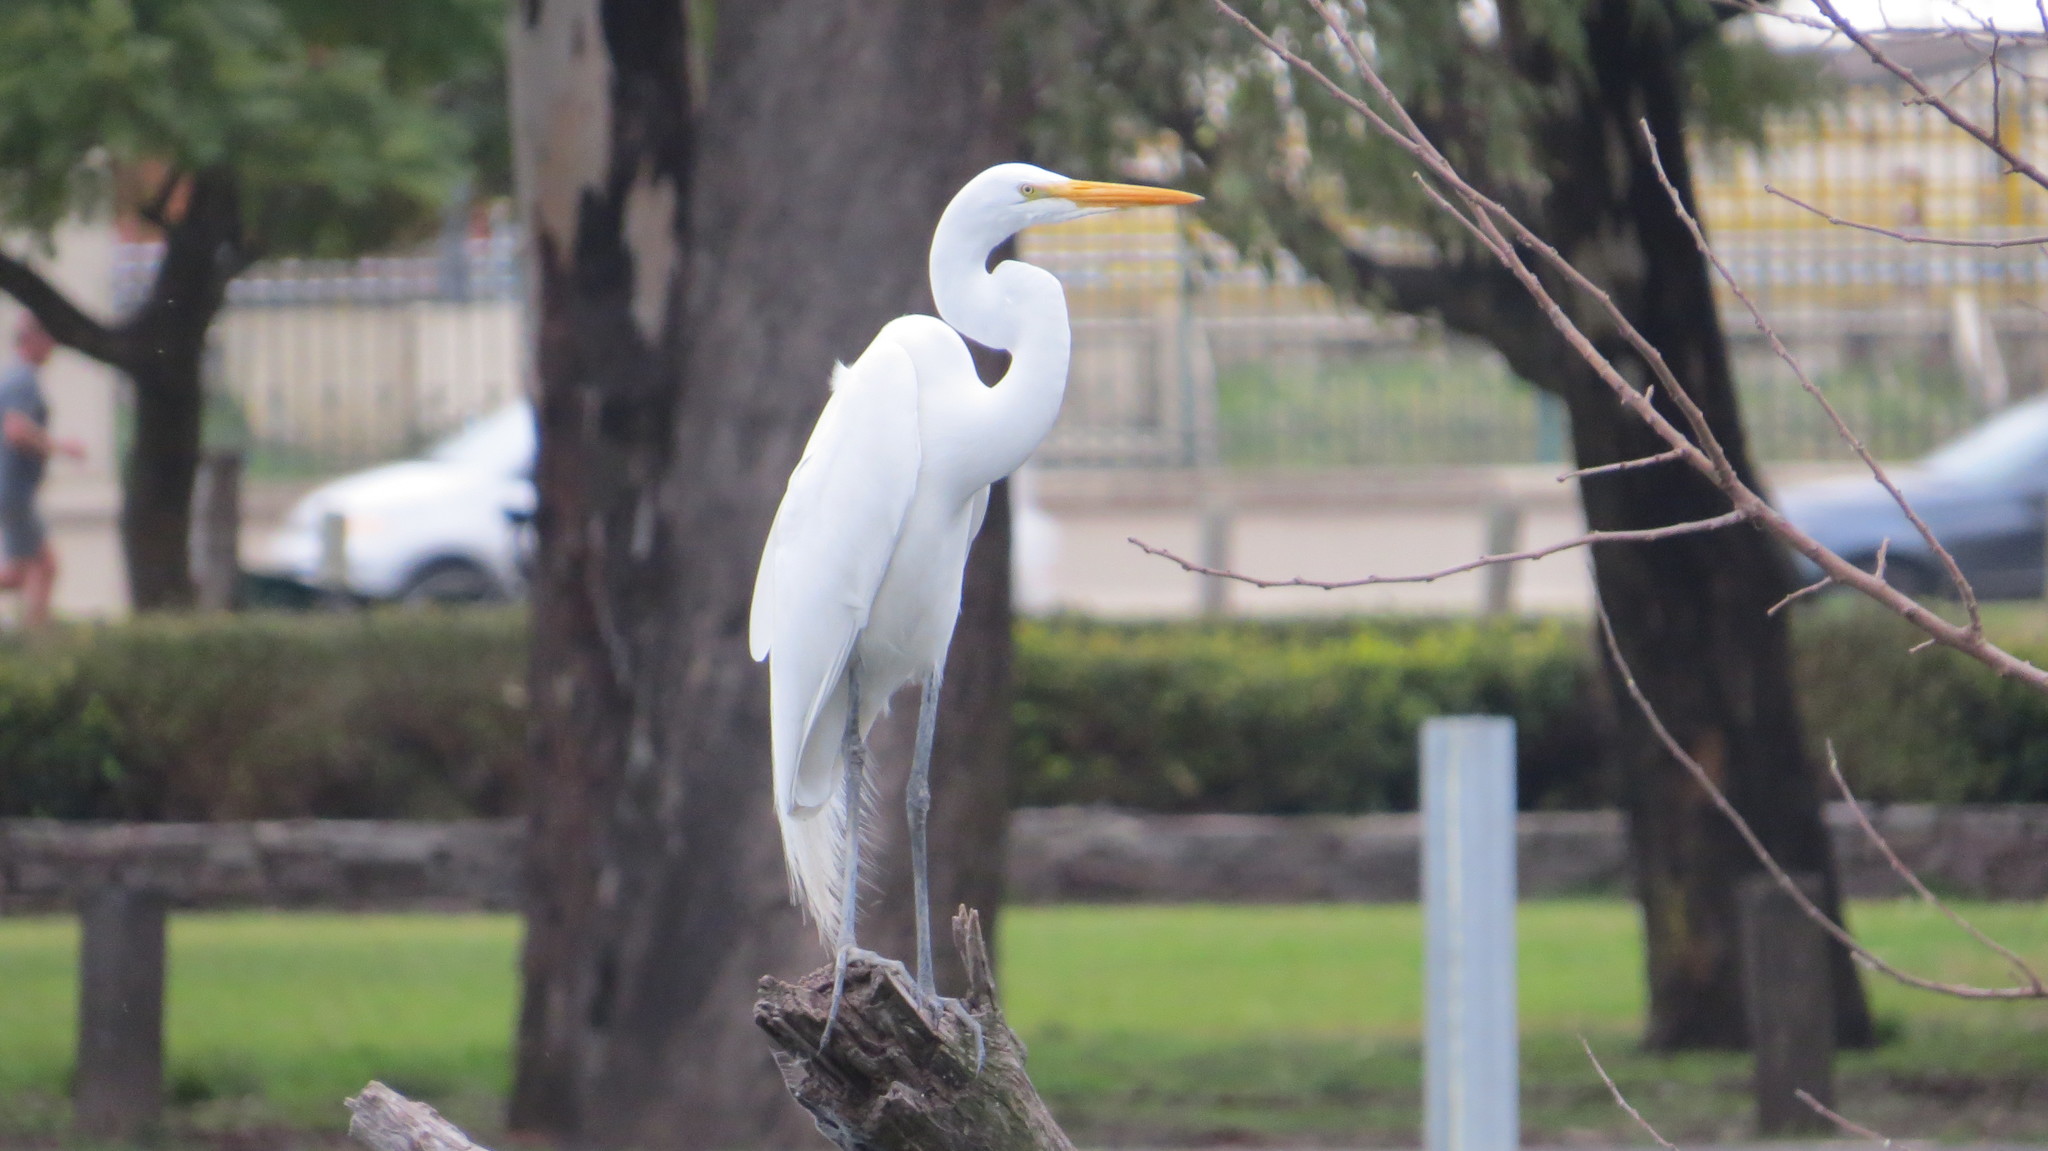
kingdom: Animalia
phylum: Chordata
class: Aves
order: Pelecaniformes
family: Ardeidae
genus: Ardea
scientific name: Ardea alba
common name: Great egret
